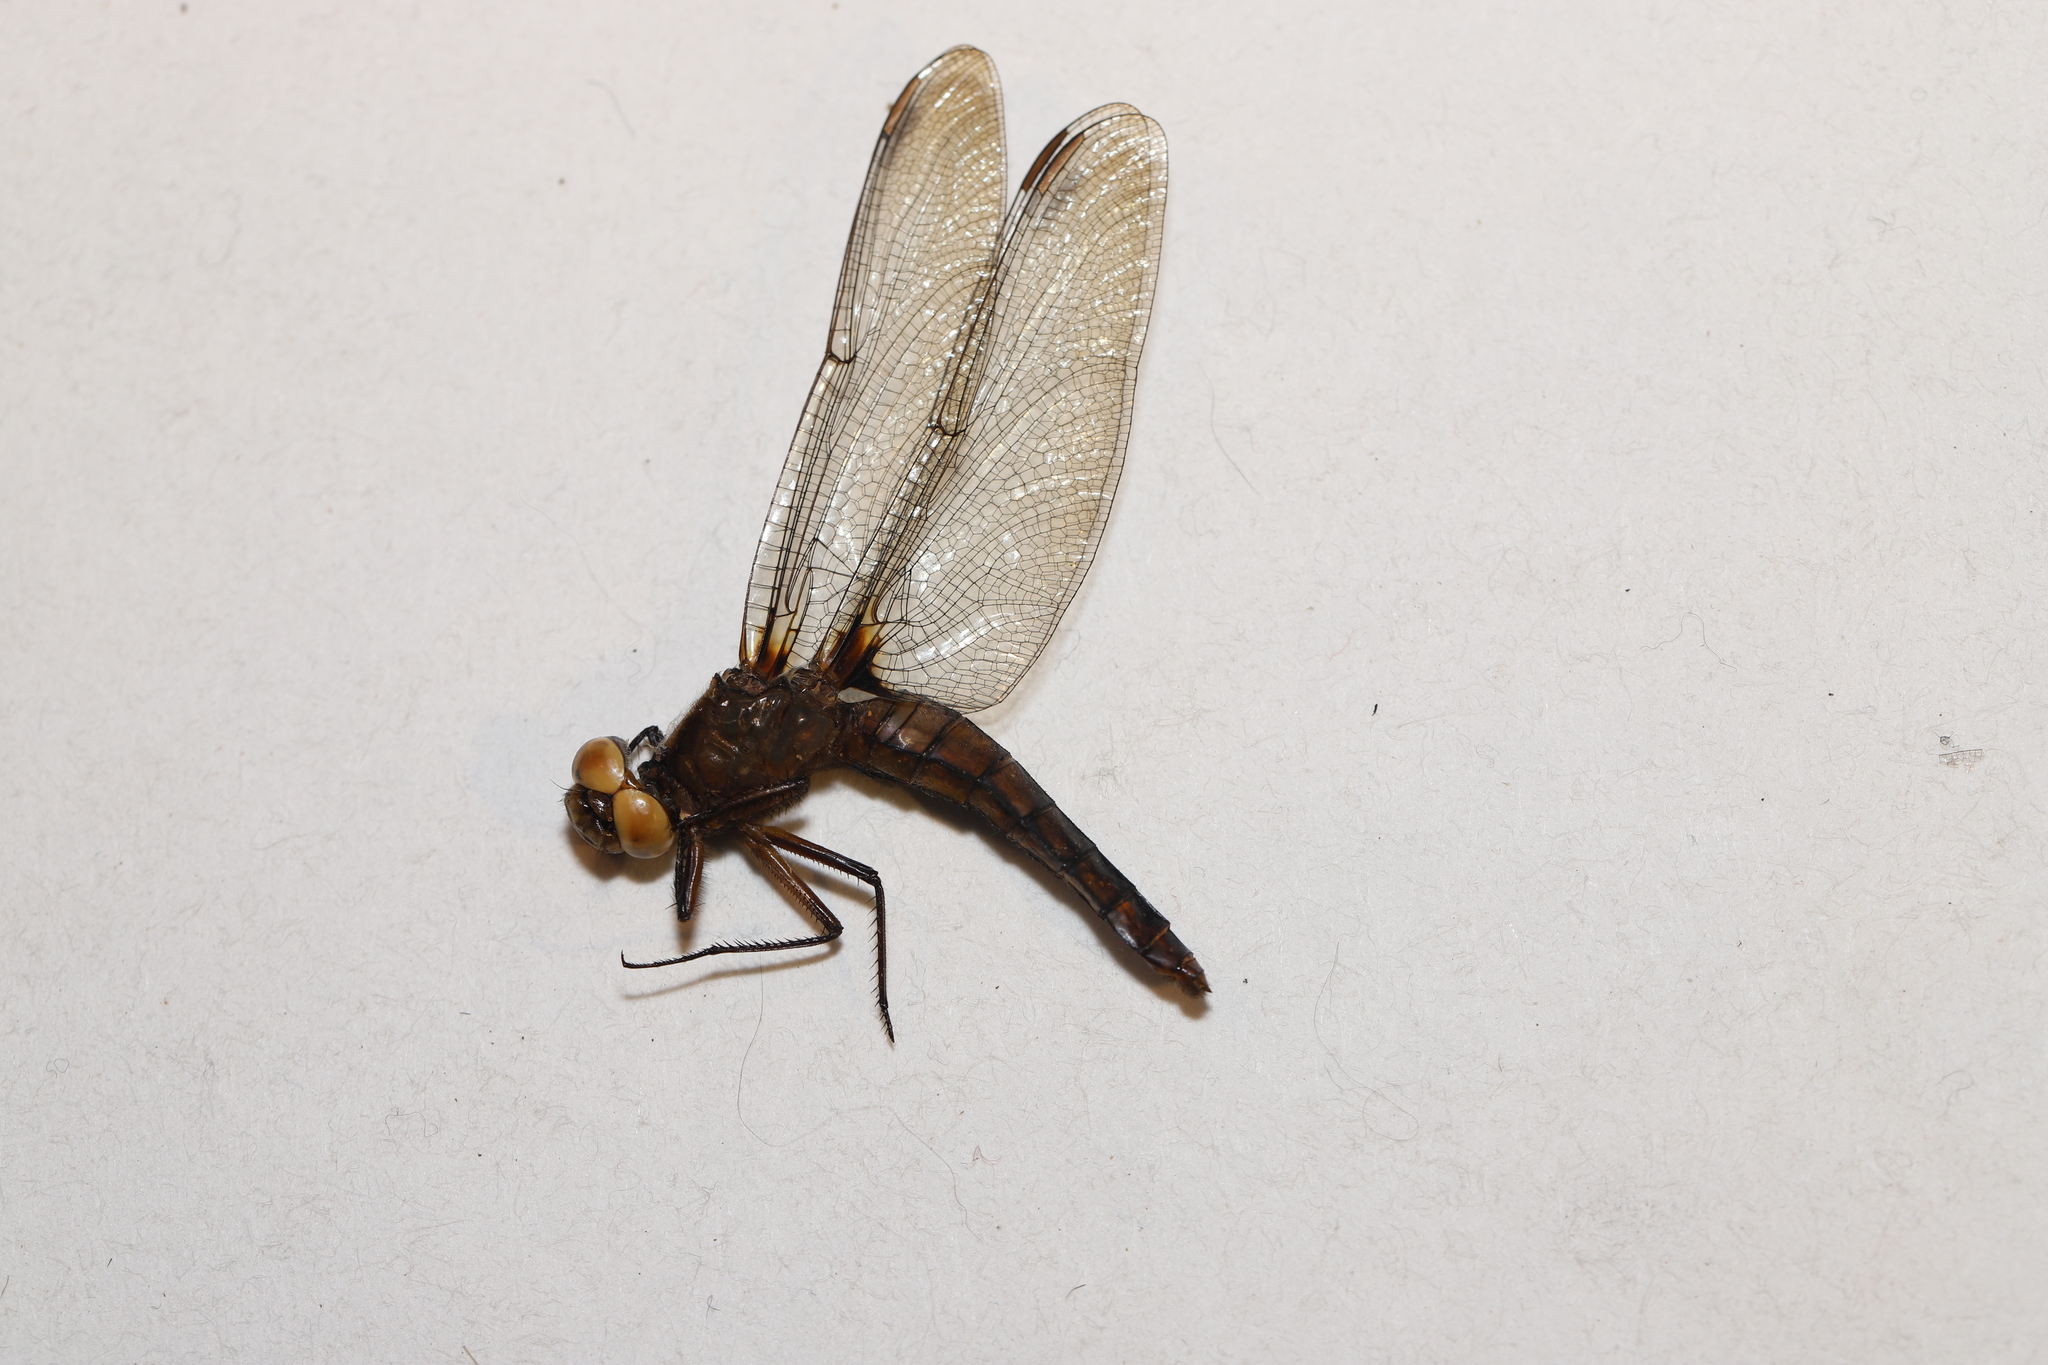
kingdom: Animalia
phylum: Arthropoda
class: Insecta
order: Odonata
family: Libellulidae
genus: Ladona
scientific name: Ladona julia
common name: Chalk-fronted corporal
